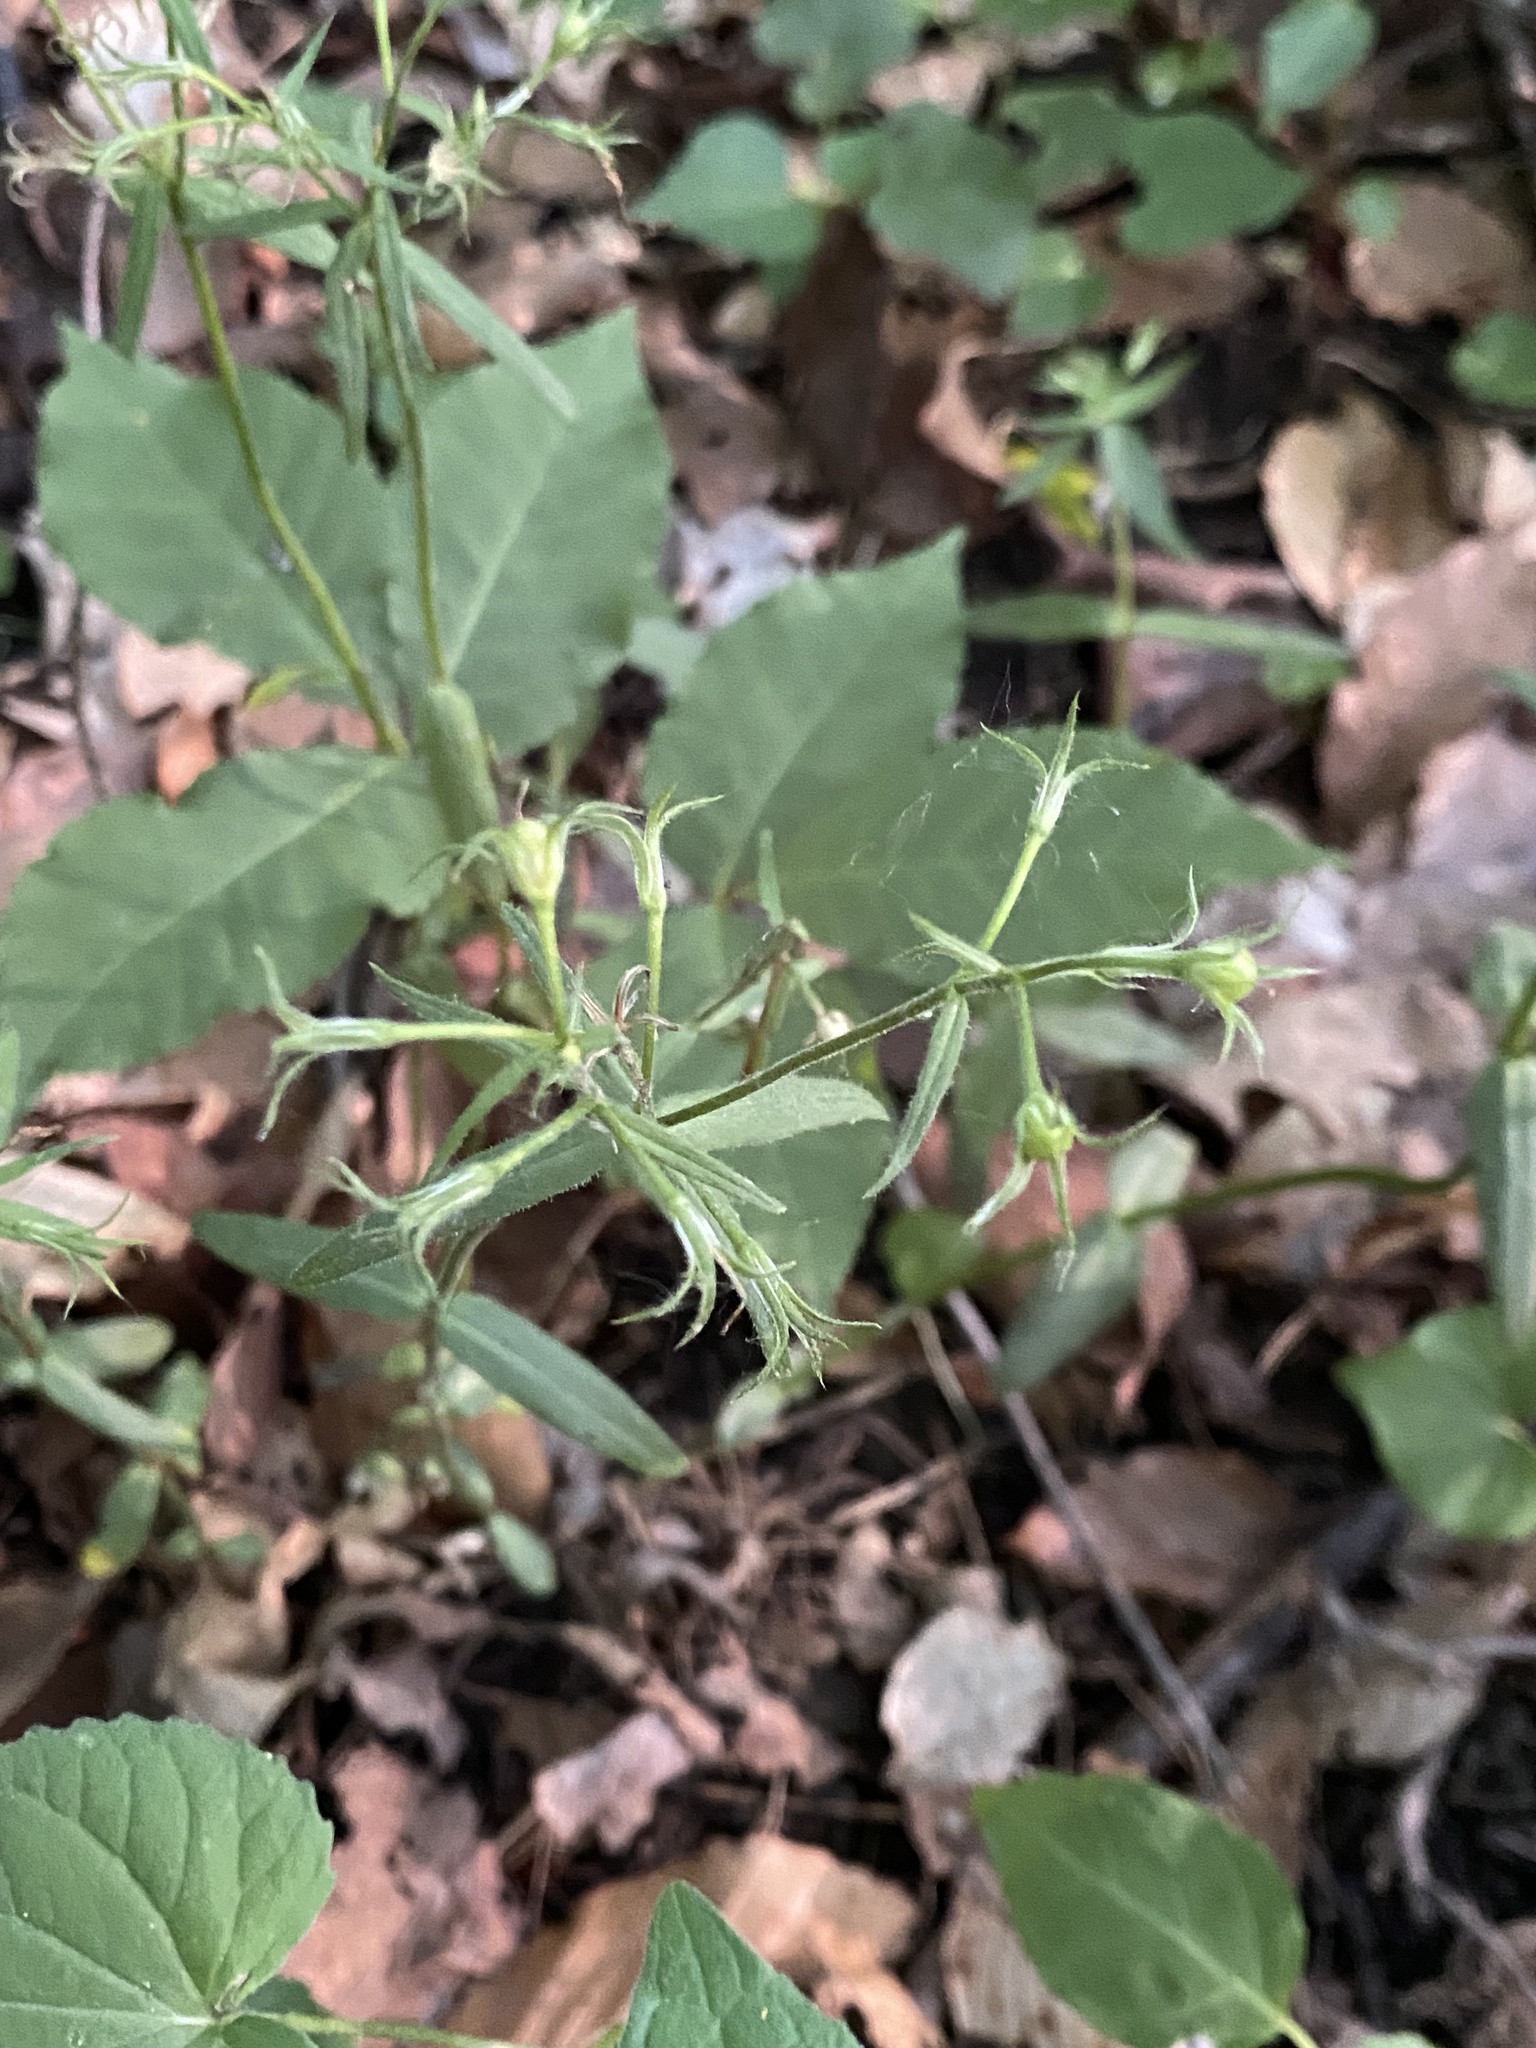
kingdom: Plantae
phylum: Tracheophyta
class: Magnoliopsida
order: Ericales
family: Polemoniaceae
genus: Phlox
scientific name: Phlox divaricata
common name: Blue phlox
